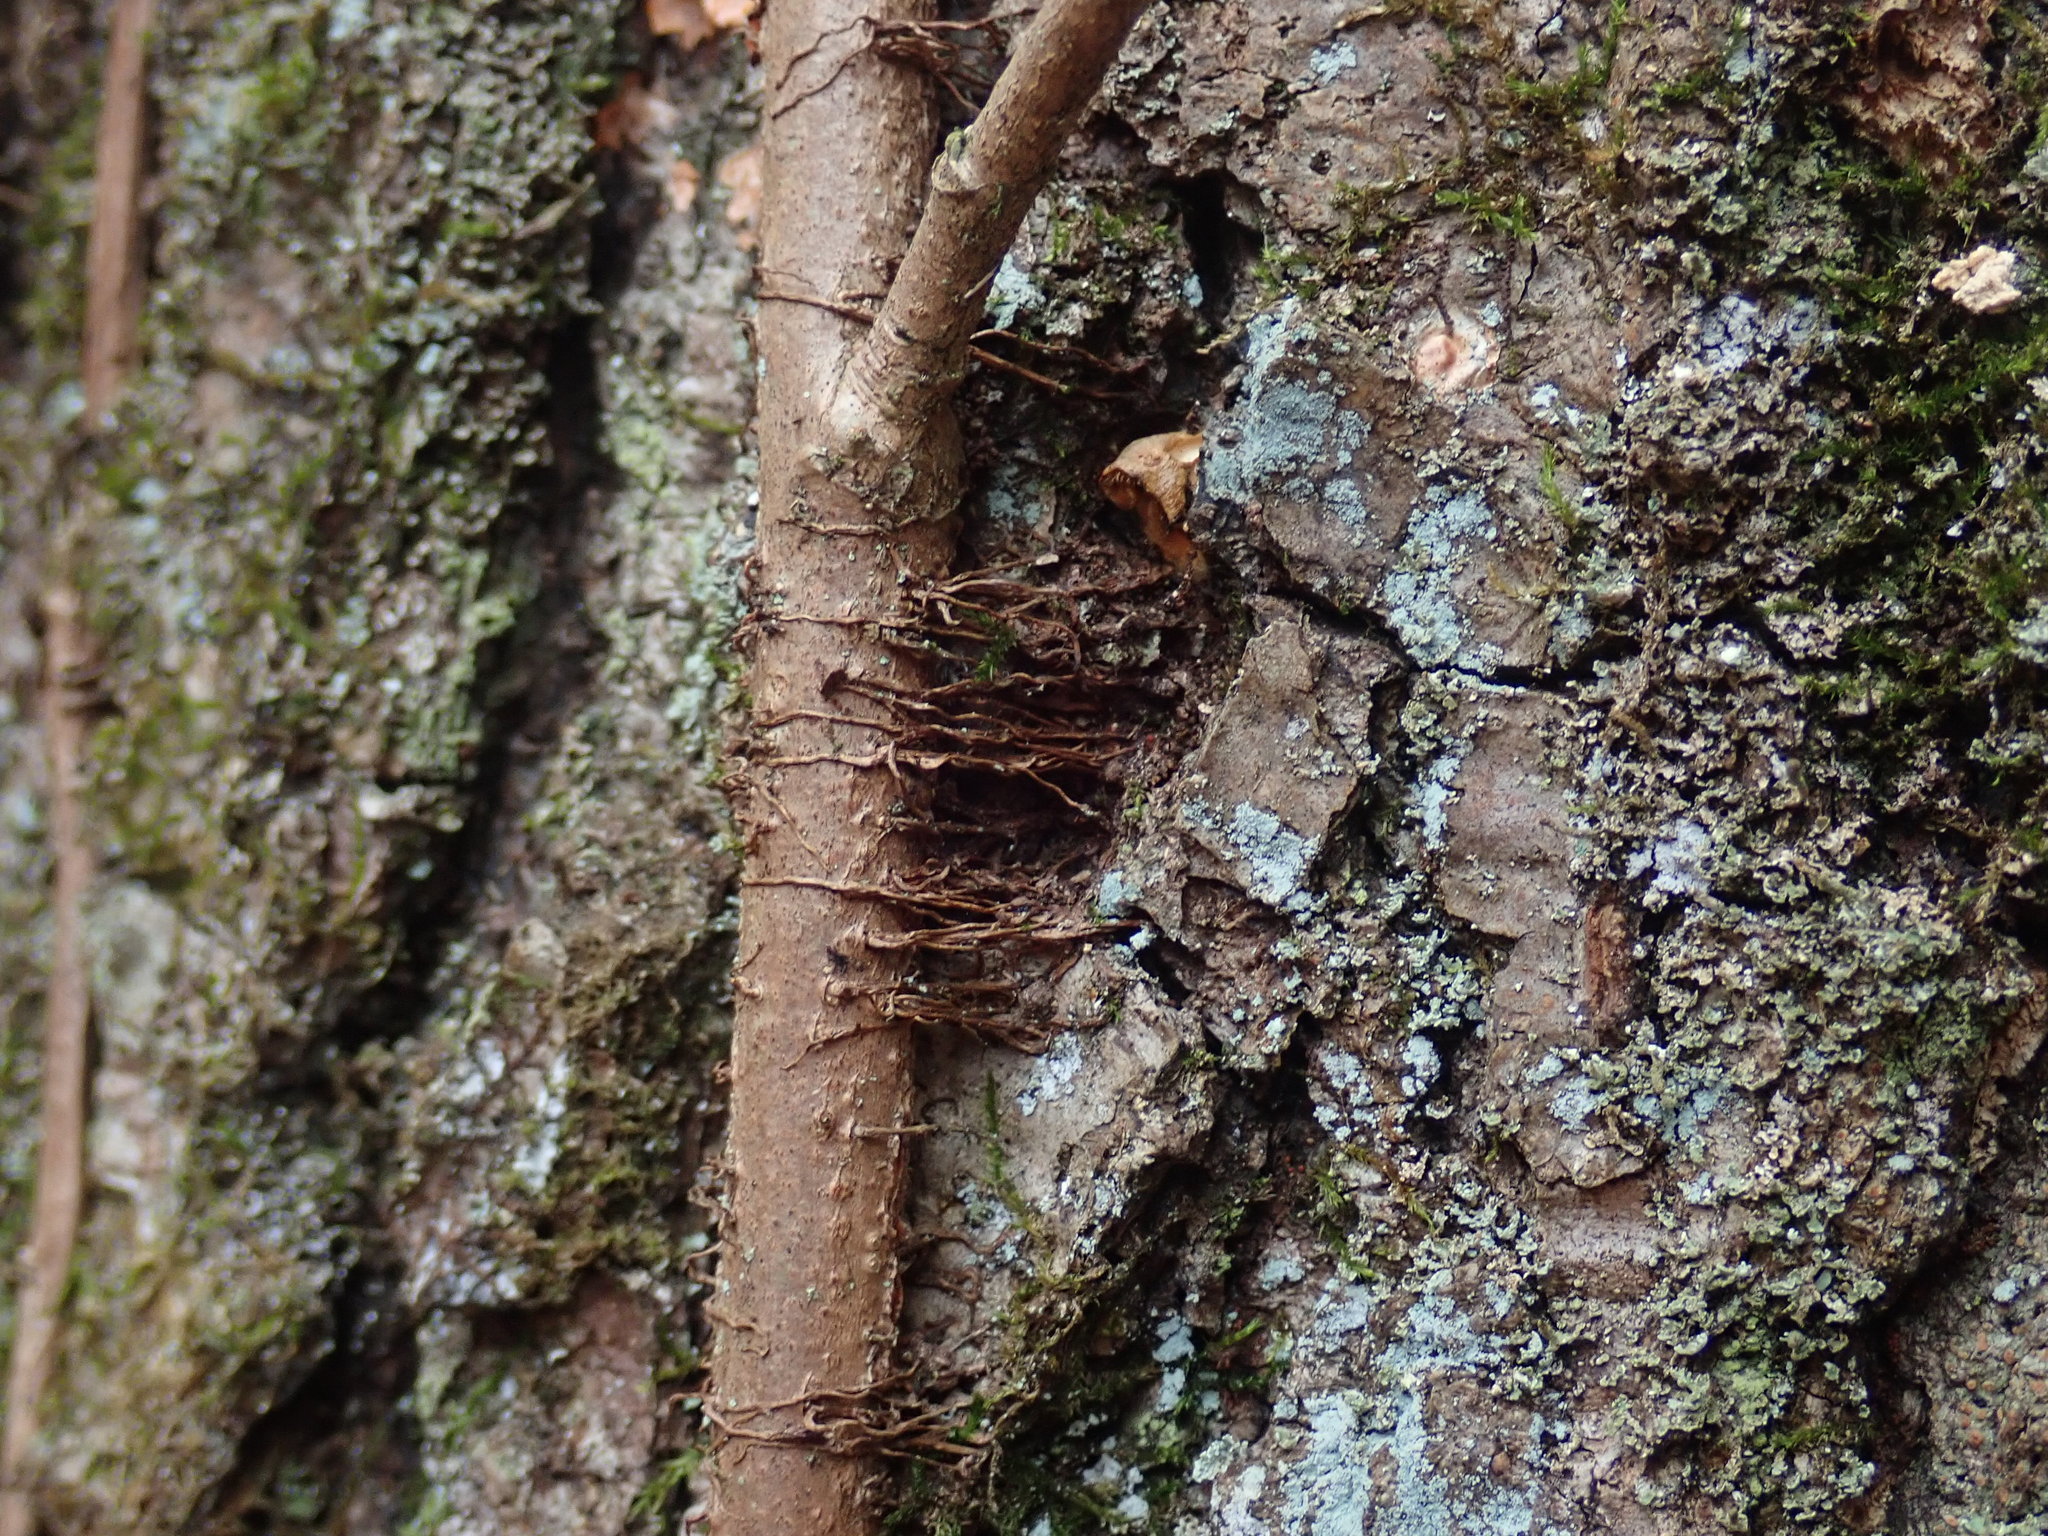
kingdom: Plantae
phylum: Tracheophyta
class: Magnoliopsida
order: Sapindales
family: Anacardiaceae
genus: Toxicodendron
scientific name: Toxicodendron radicans
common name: Poison ivy
